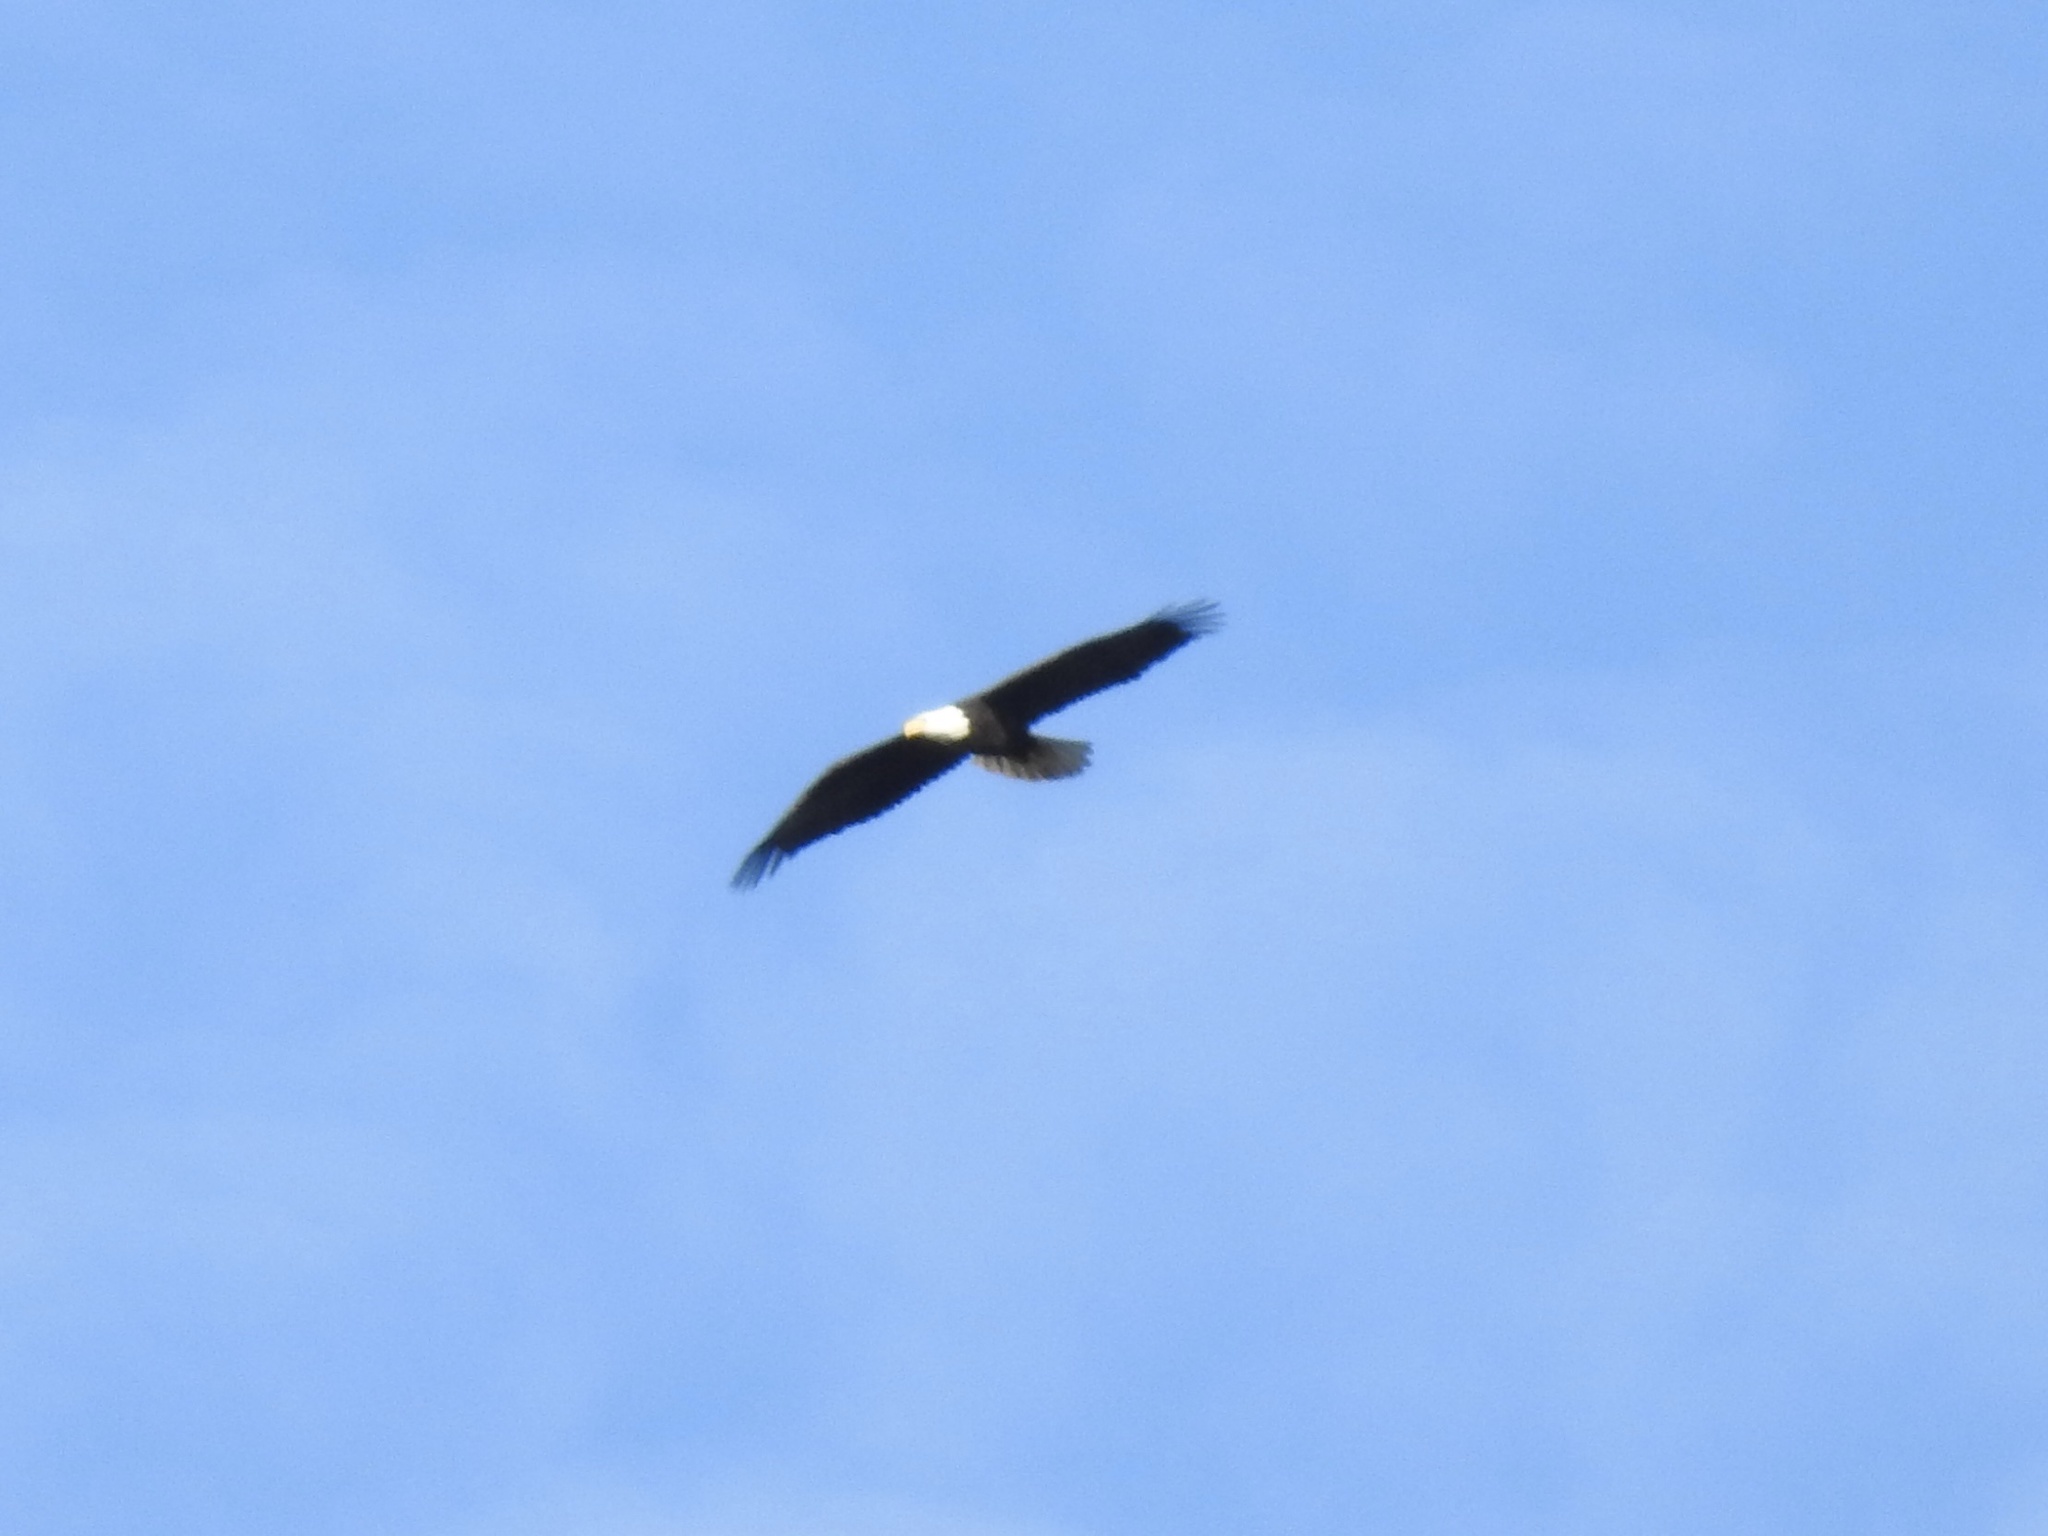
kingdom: Animalia
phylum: Chordata
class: Aves
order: Accipitriformes
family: Accipitridae
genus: Haliaeetus
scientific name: Haliaeetus leucocephalus
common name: Bald eagle
